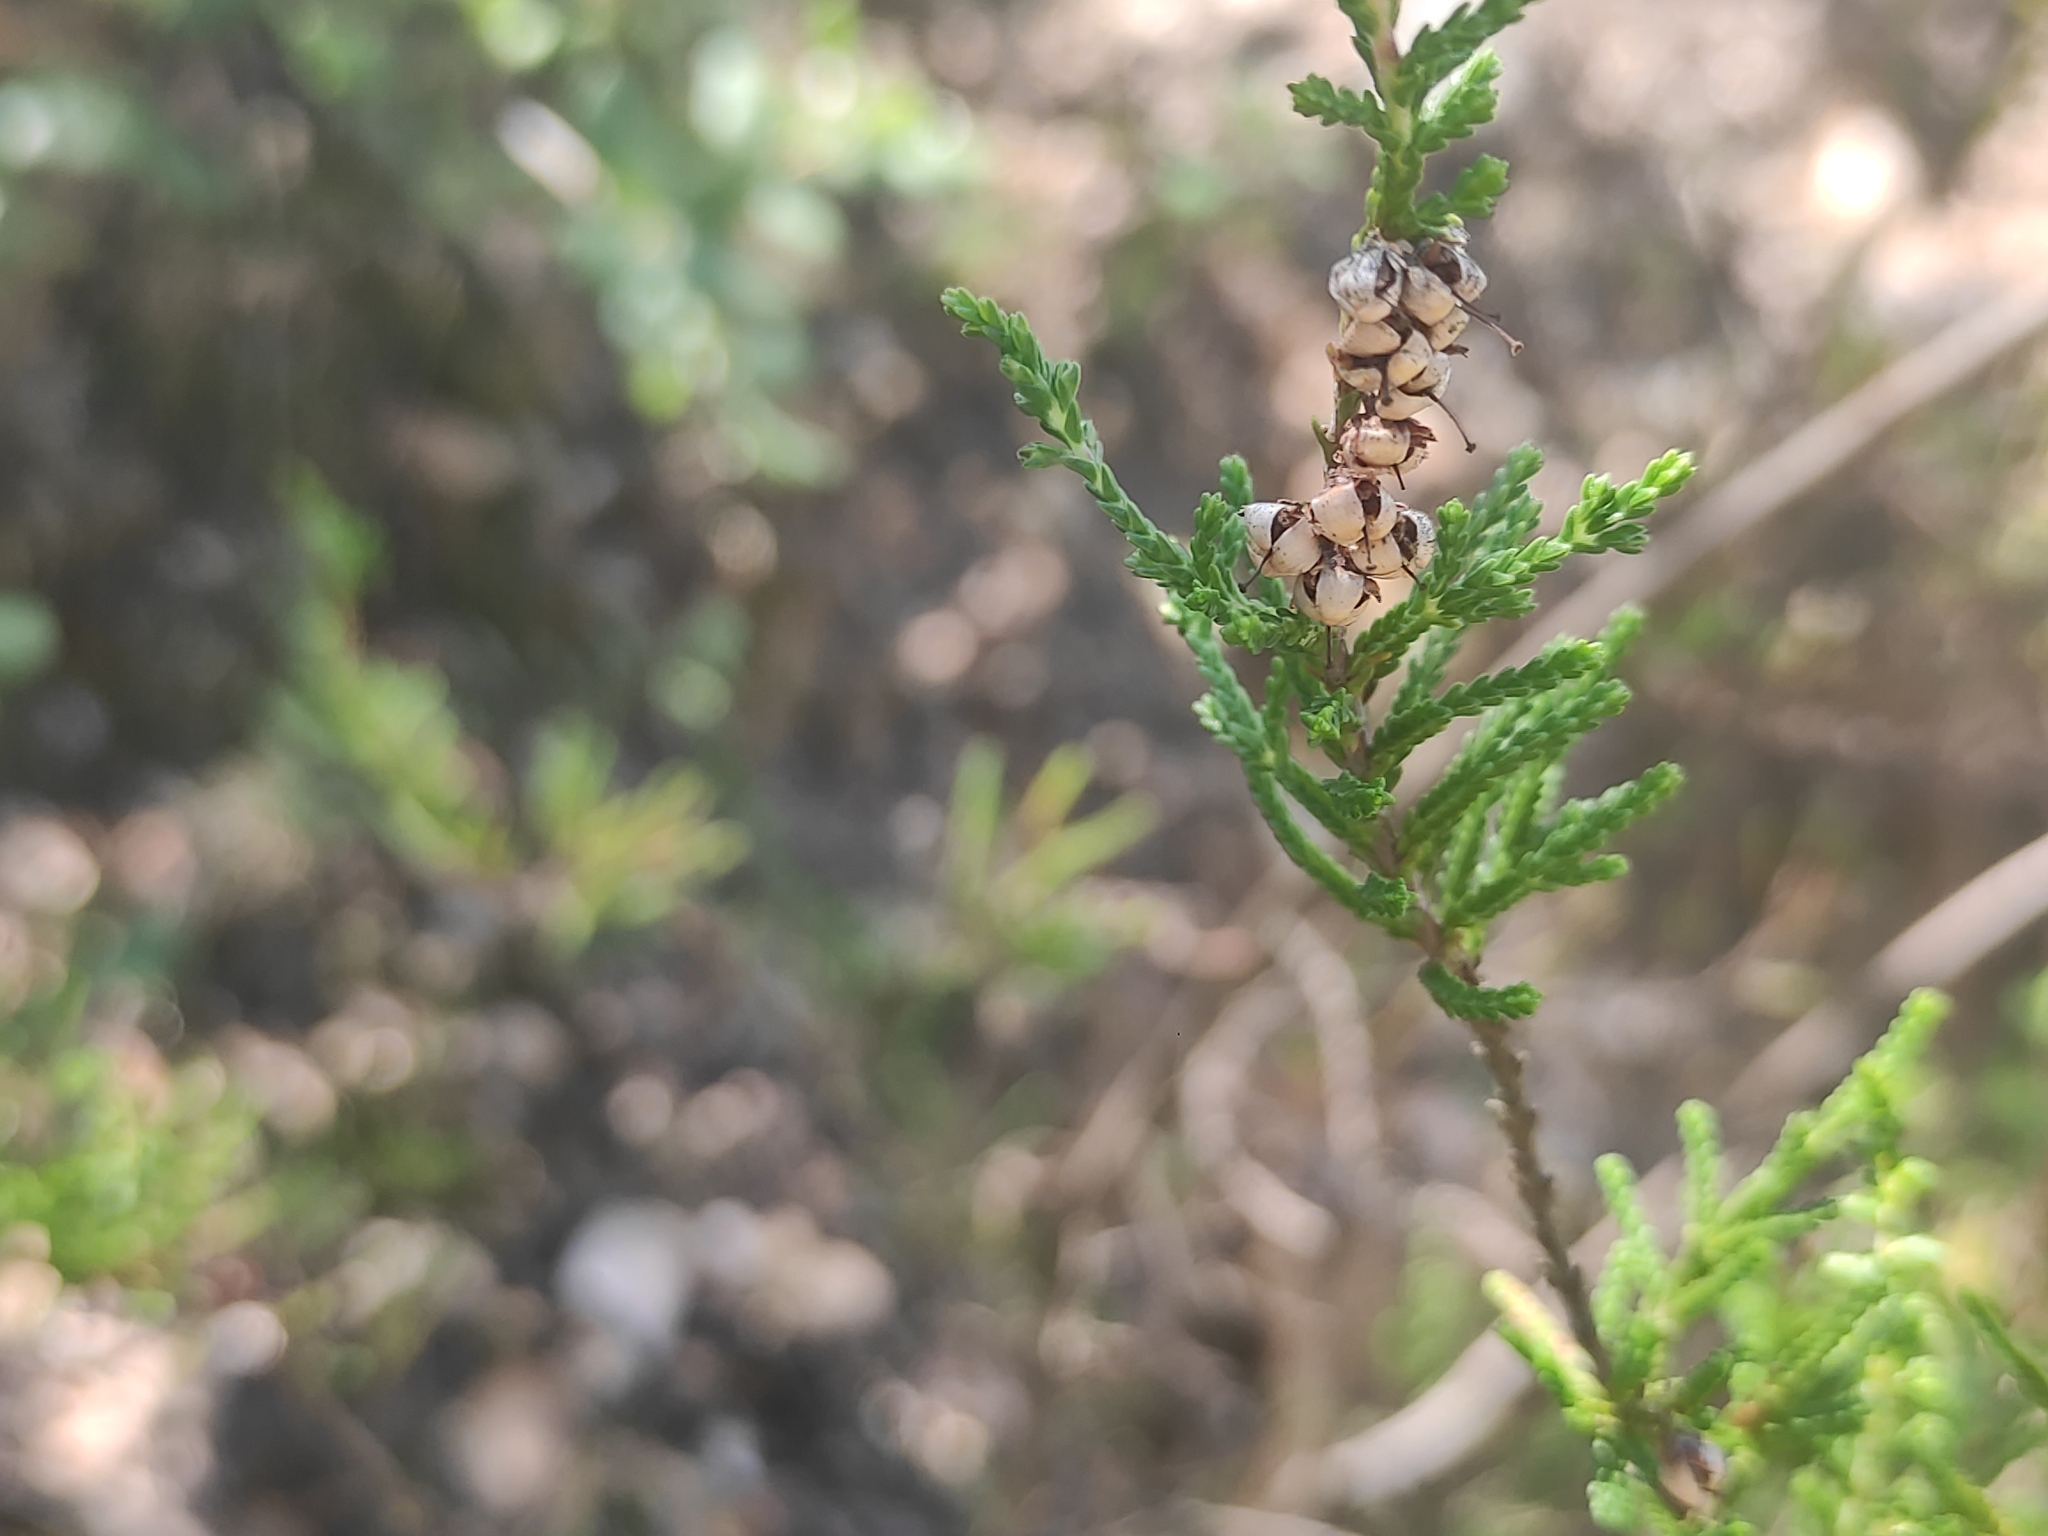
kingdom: Plantae
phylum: Tracheophyta
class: Magnoliopsida
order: Ericales
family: Ericaceae
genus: Calluna
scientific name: Calluna vulgaris
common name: Heather
